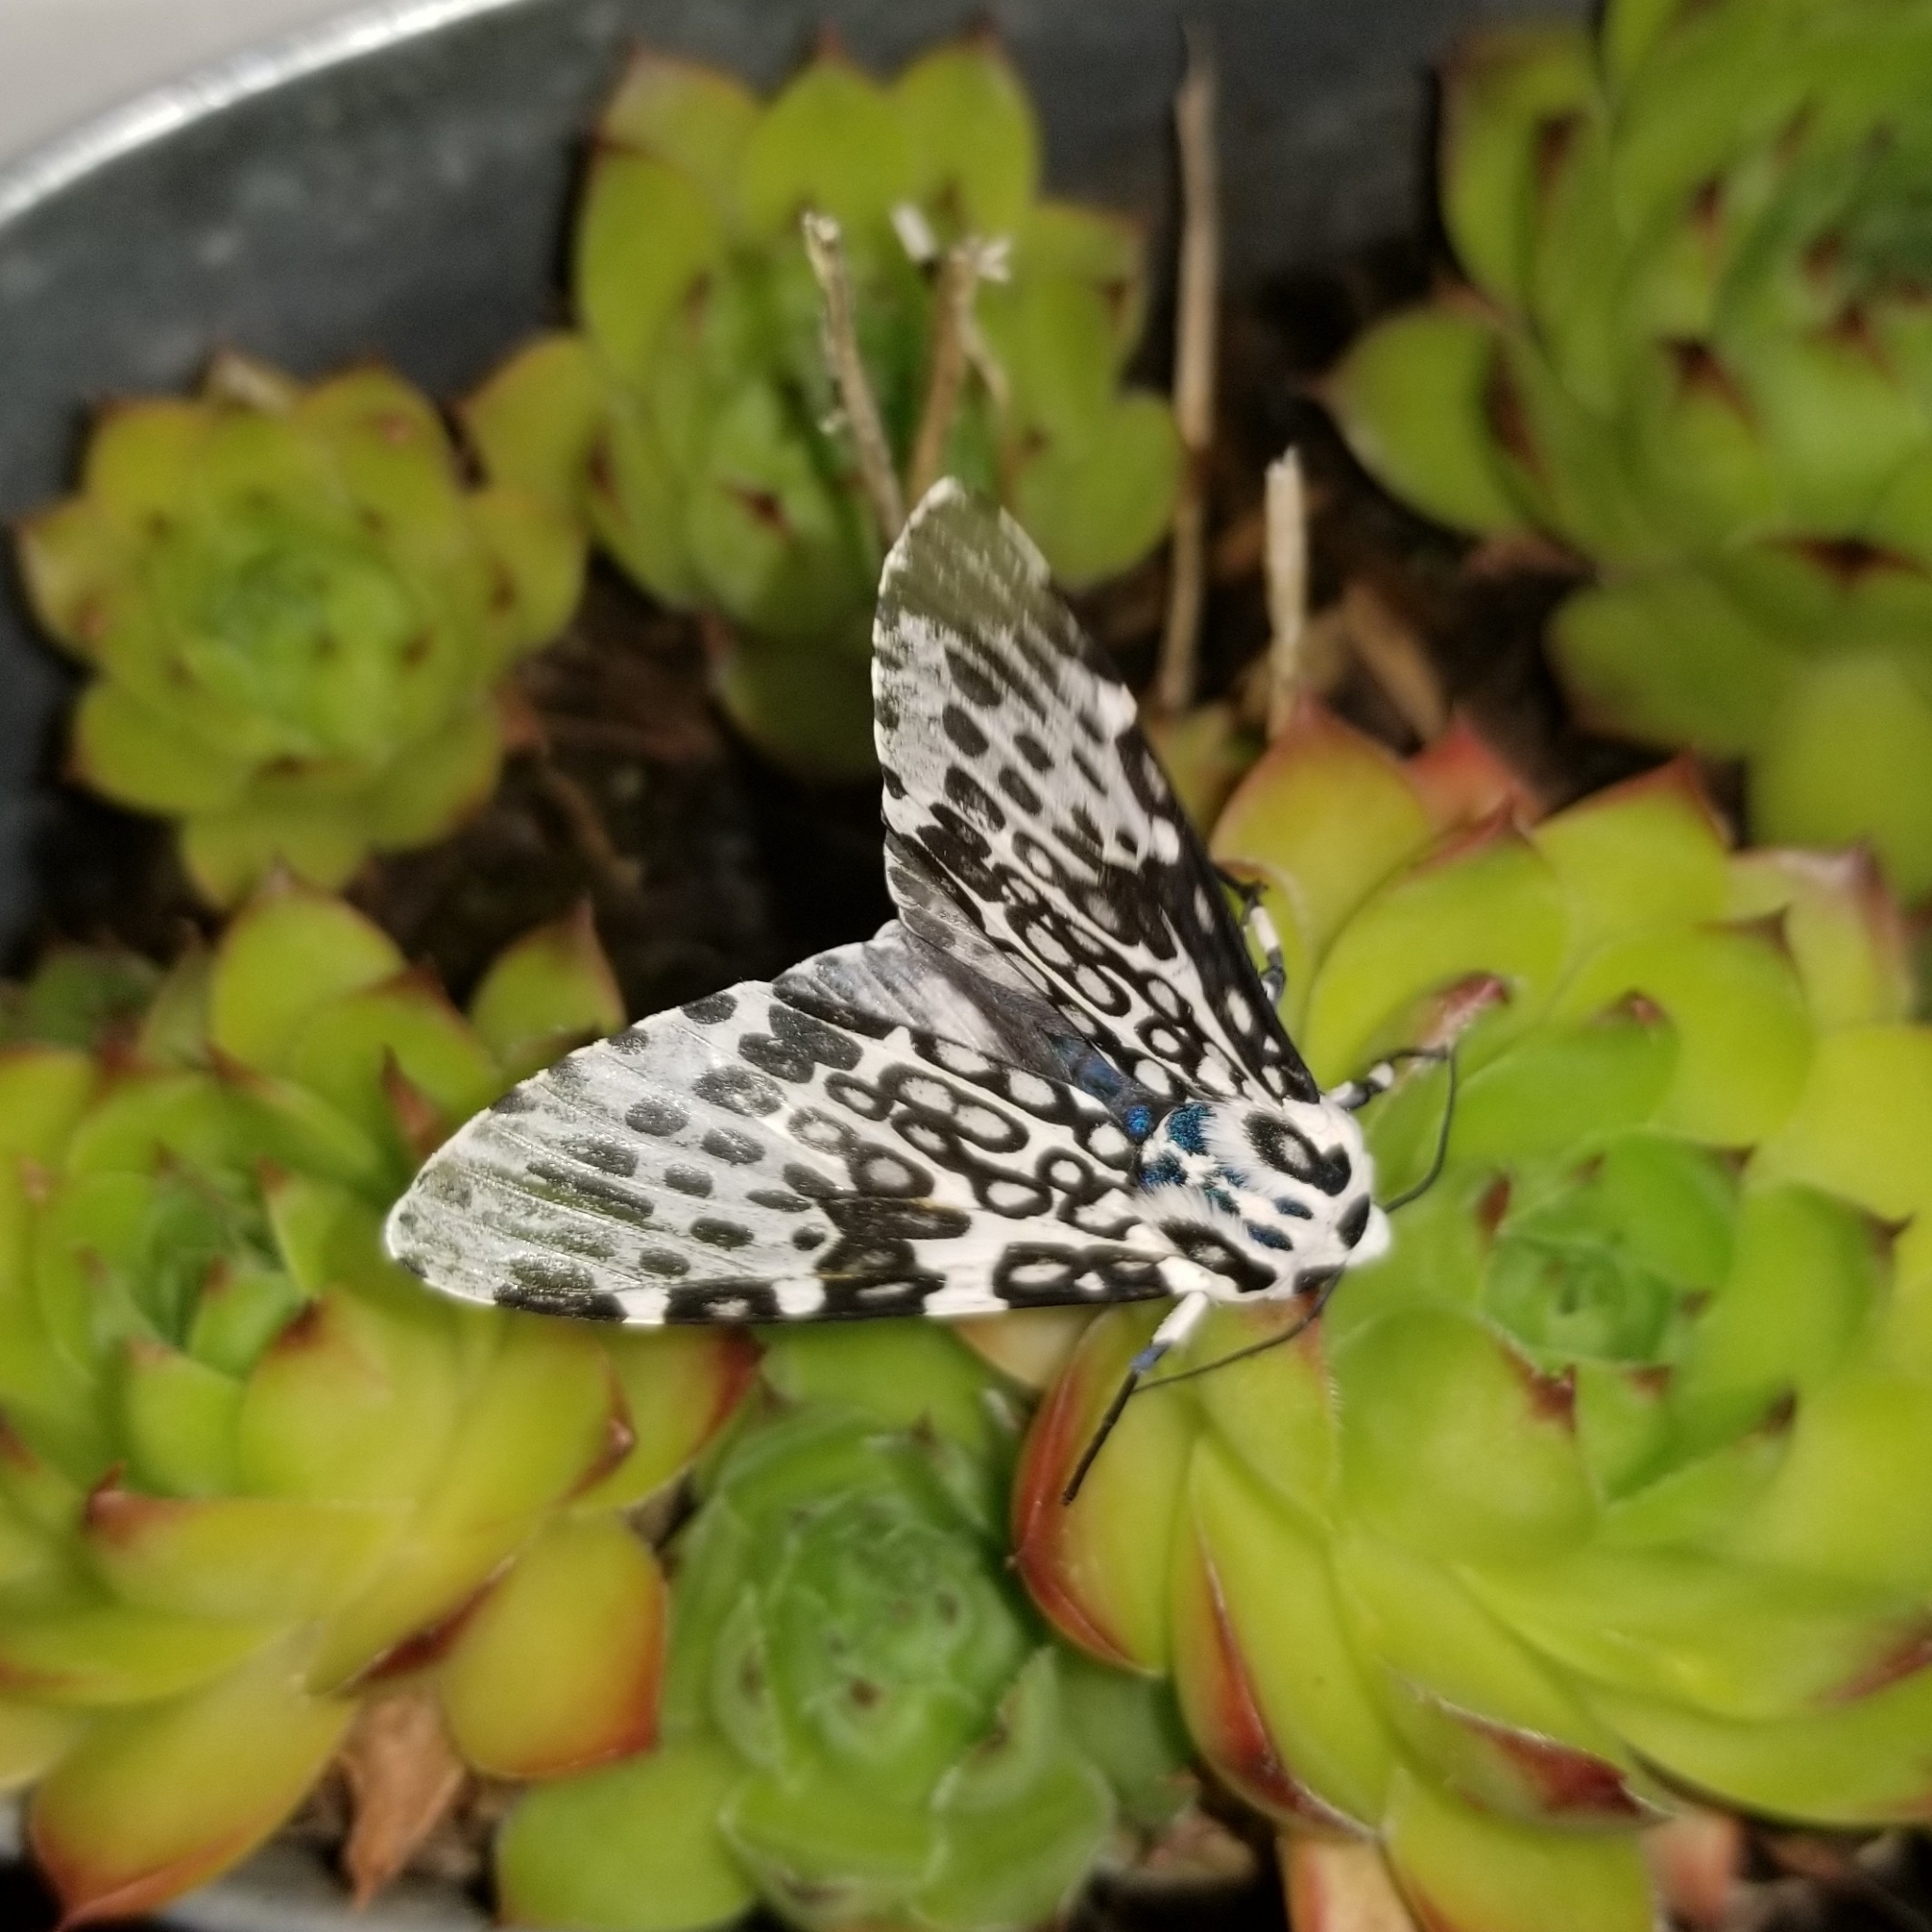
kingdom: Animalia
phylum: Arthropoda
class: Insecta
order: Lepidoptera
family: Erebidae
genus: Hypercompe
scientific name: Hypercompe scribonia
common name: Giant leopard moth
